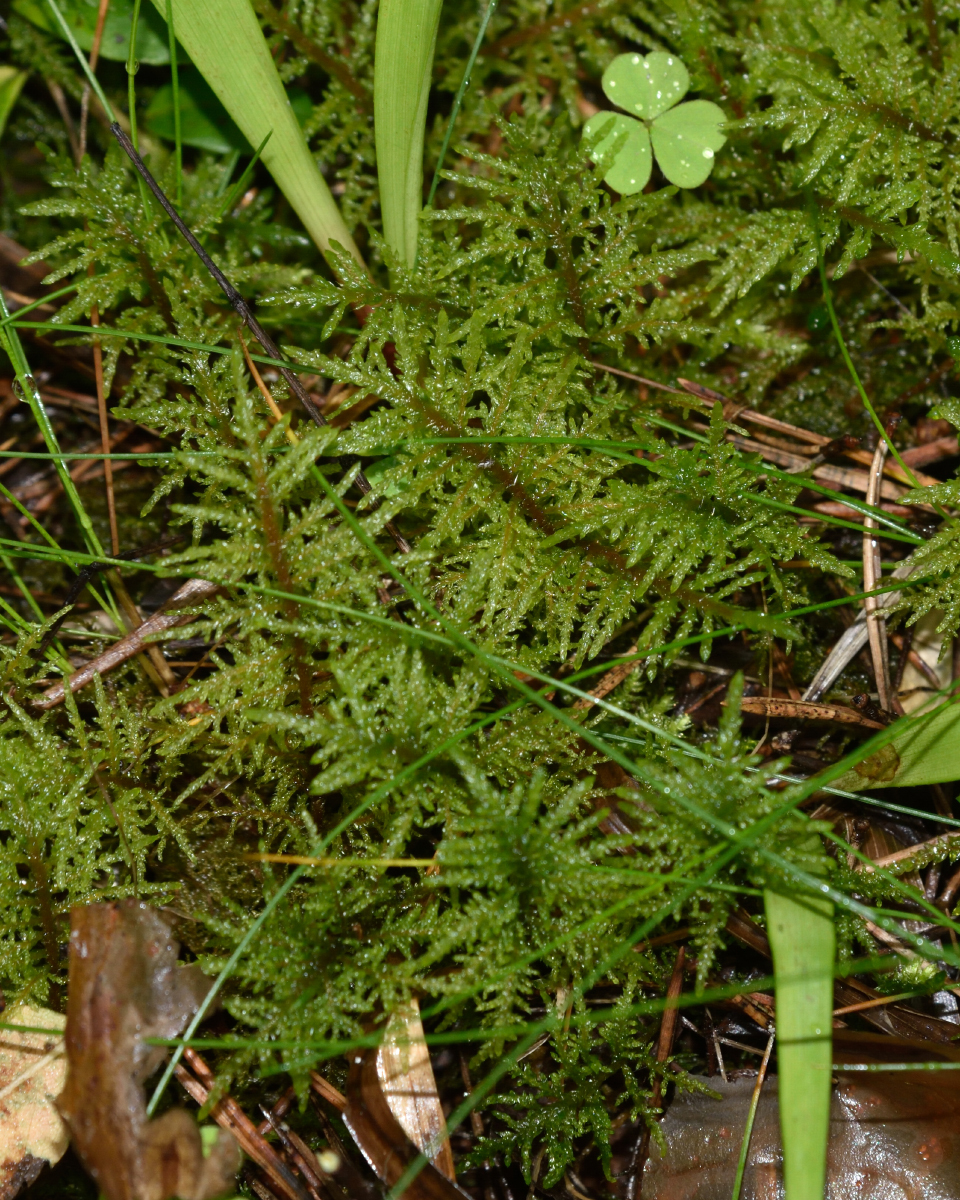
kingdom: Plantae
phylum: Bryophyta
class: Bryopsida
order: Hypnales
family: Hylocomiaceae
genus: Hylocomium
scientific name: Hylocomium splendens
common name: Stairstep moss
